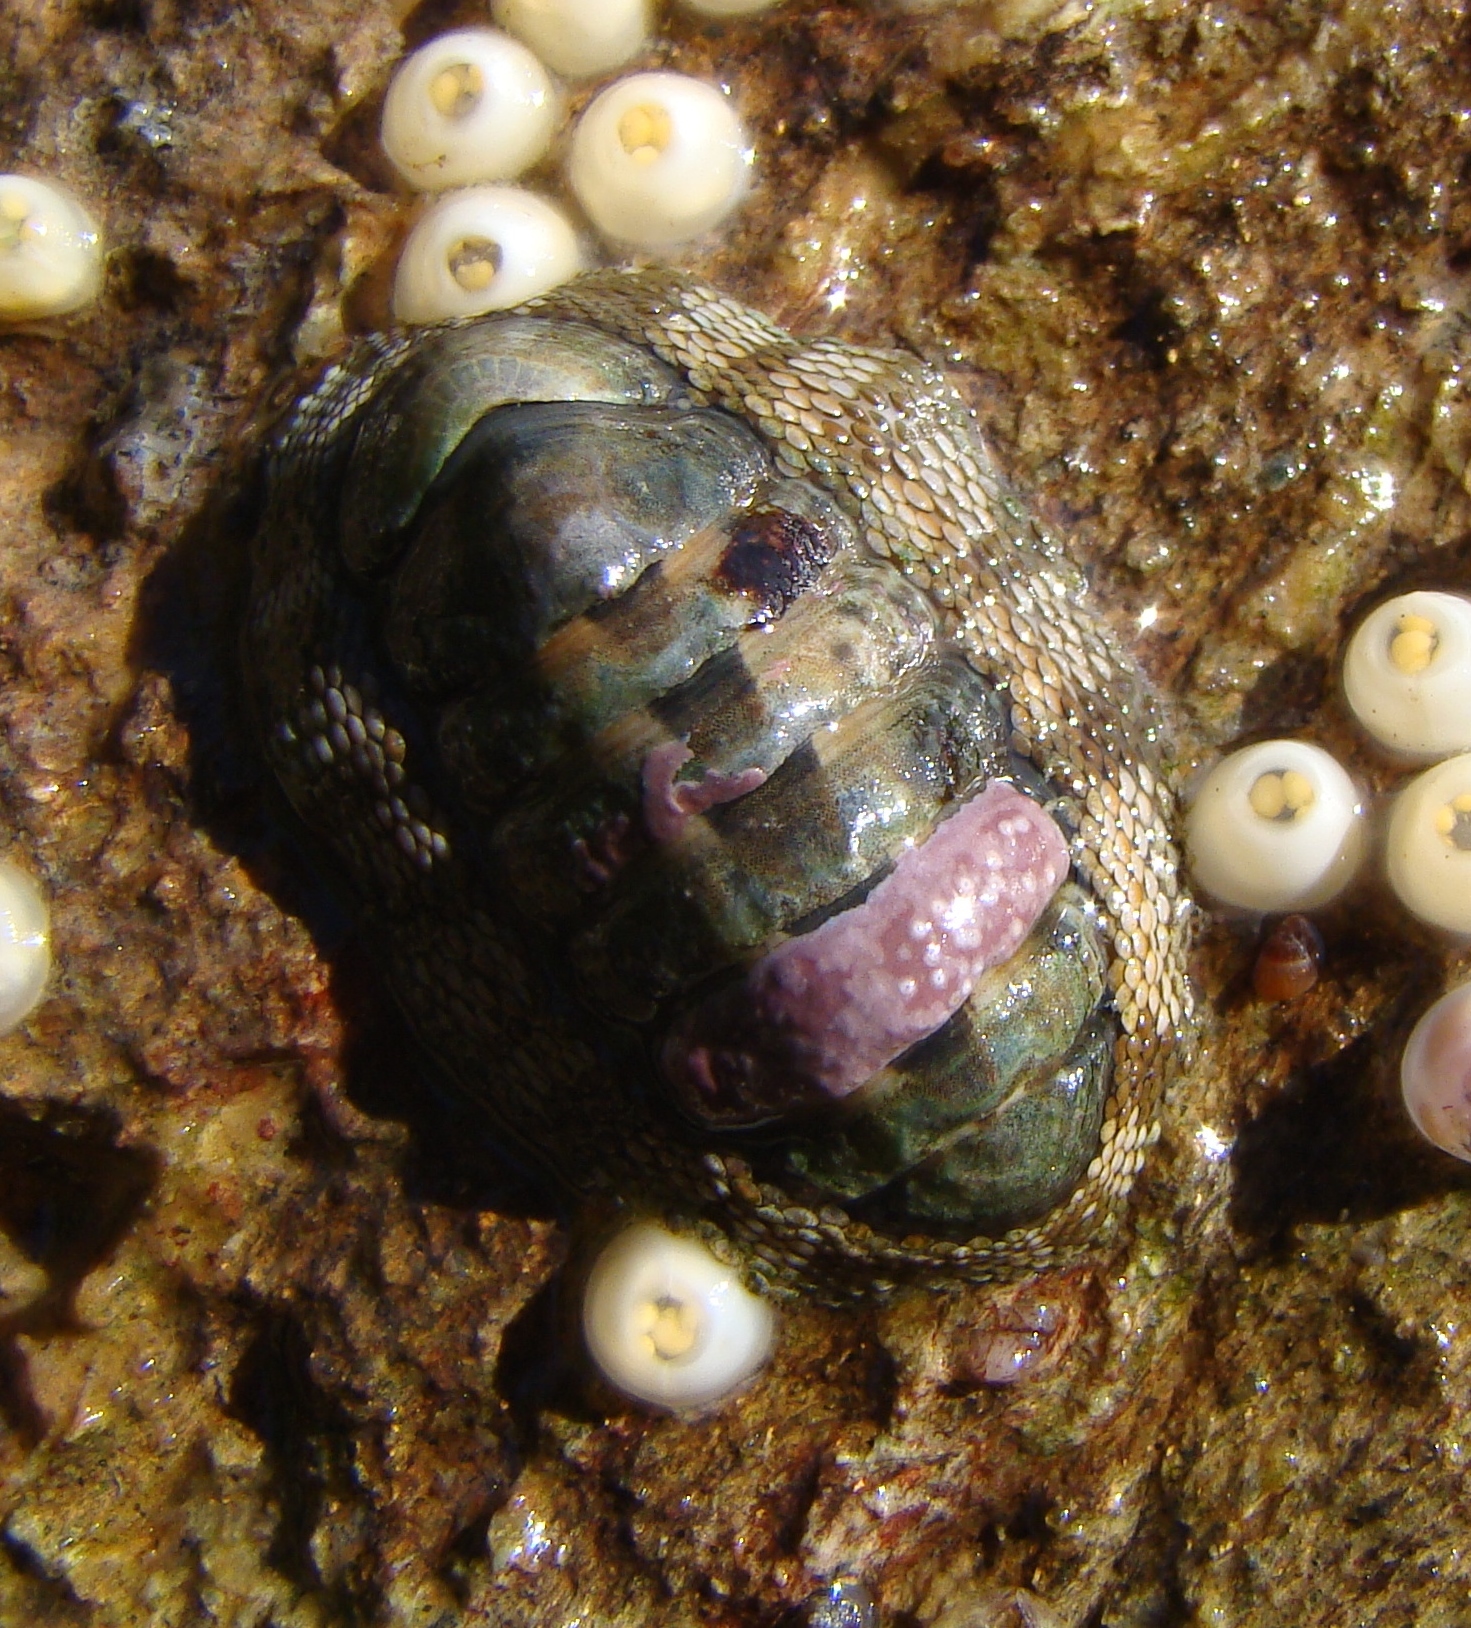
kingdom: Animalia
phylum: Mollusca
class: Polyplacophora
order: Chitonida
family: Chitonidae
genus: Sypharochiton
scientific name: Sypharochiton pelliserpentis
